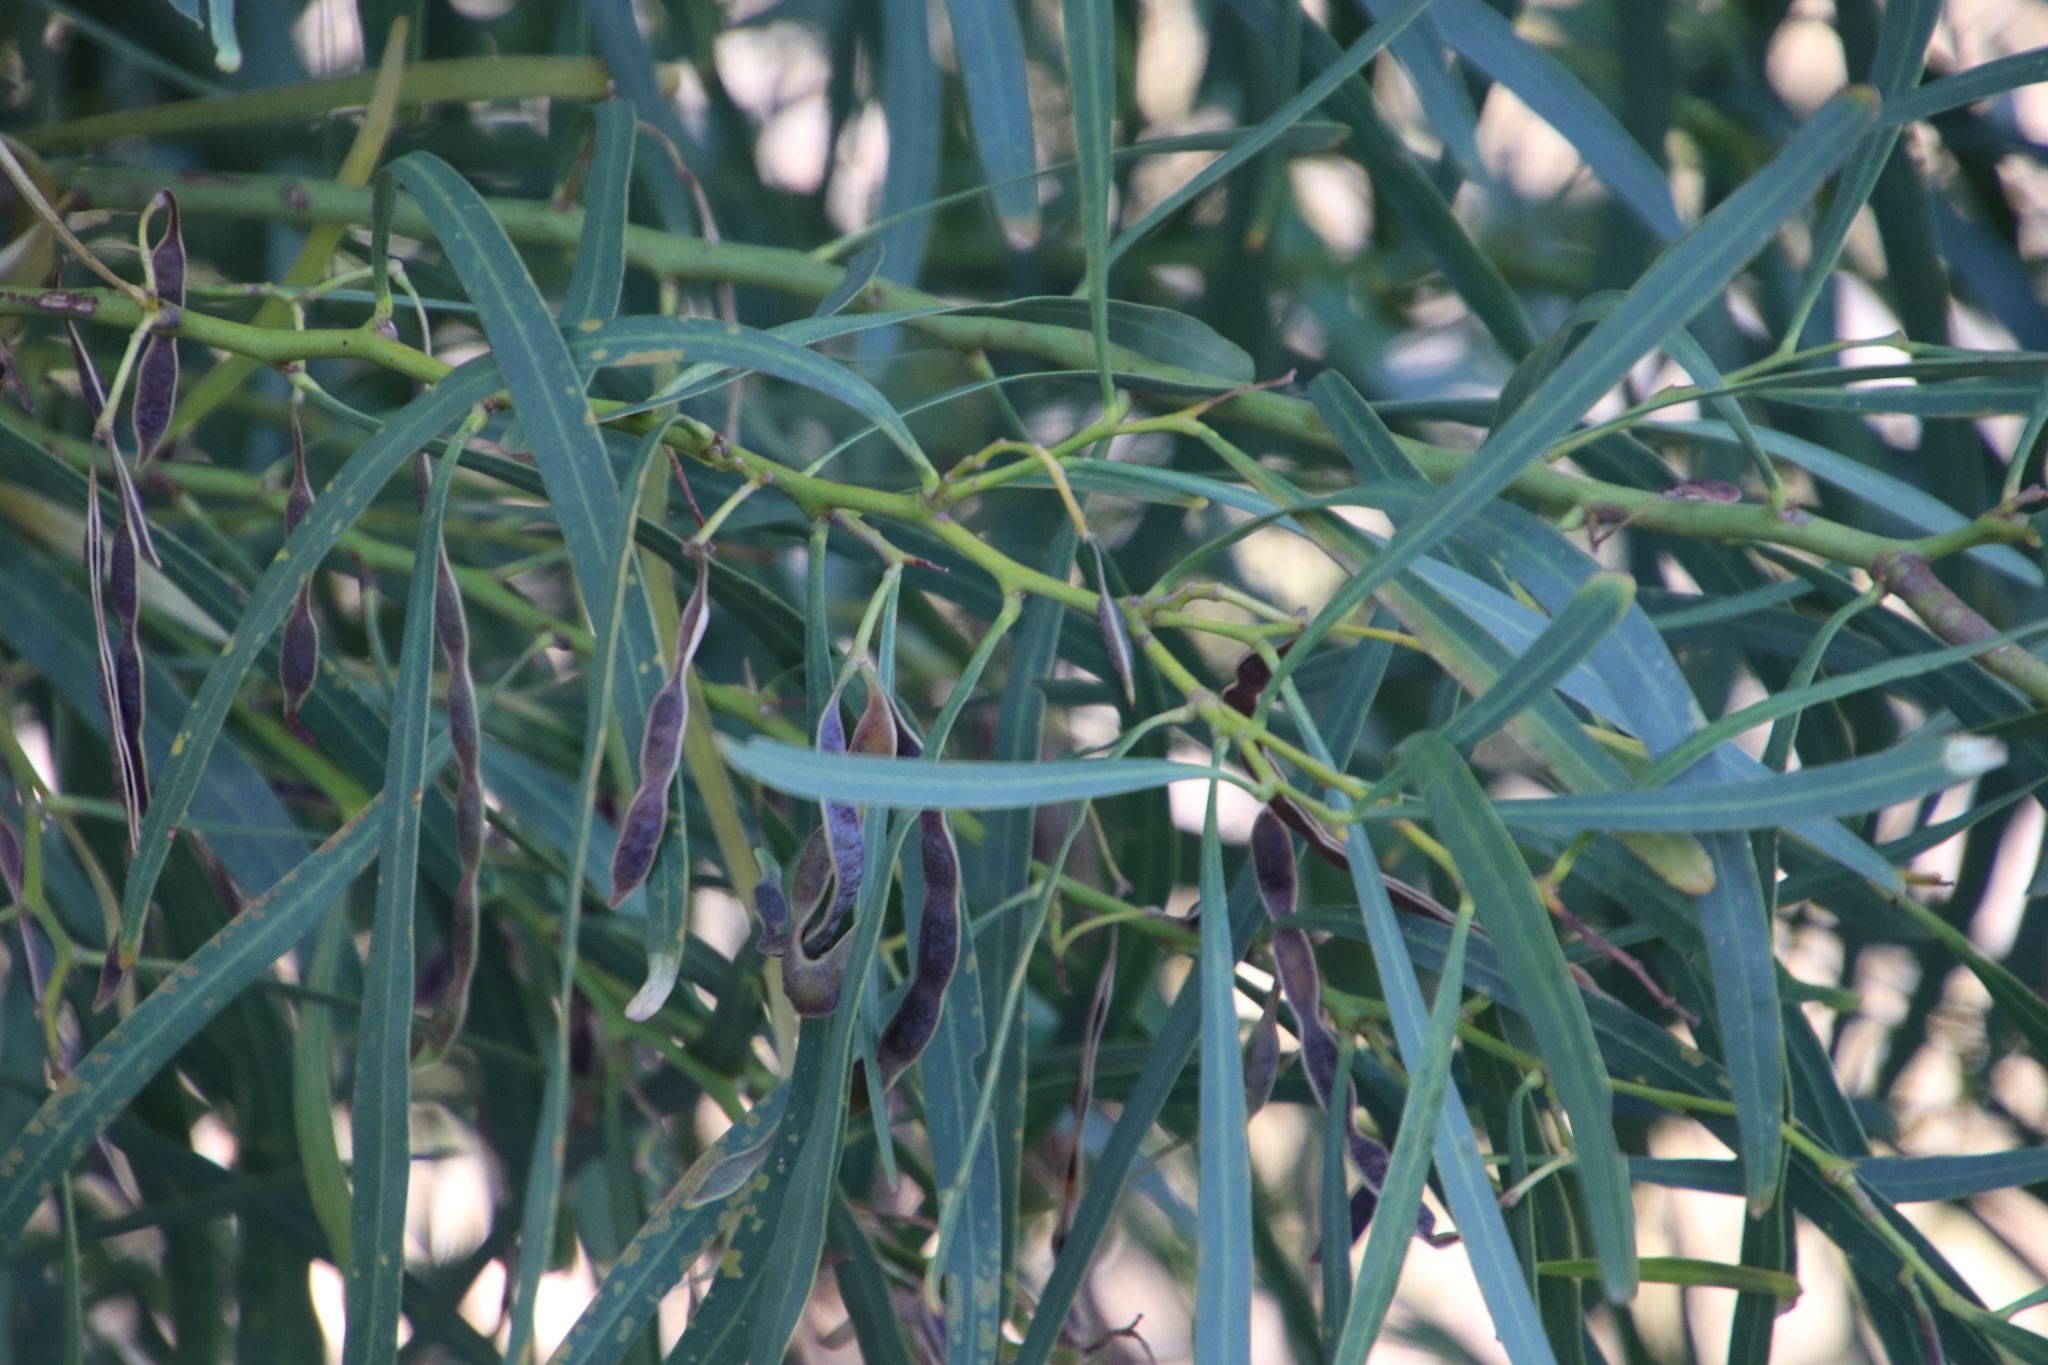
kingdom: Plantae
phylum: Tracheophyta
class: Magnoliopsida
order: Fabales
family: Fabaceae
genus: Acacia
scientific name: Acacia saligna
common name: Orange wattle
